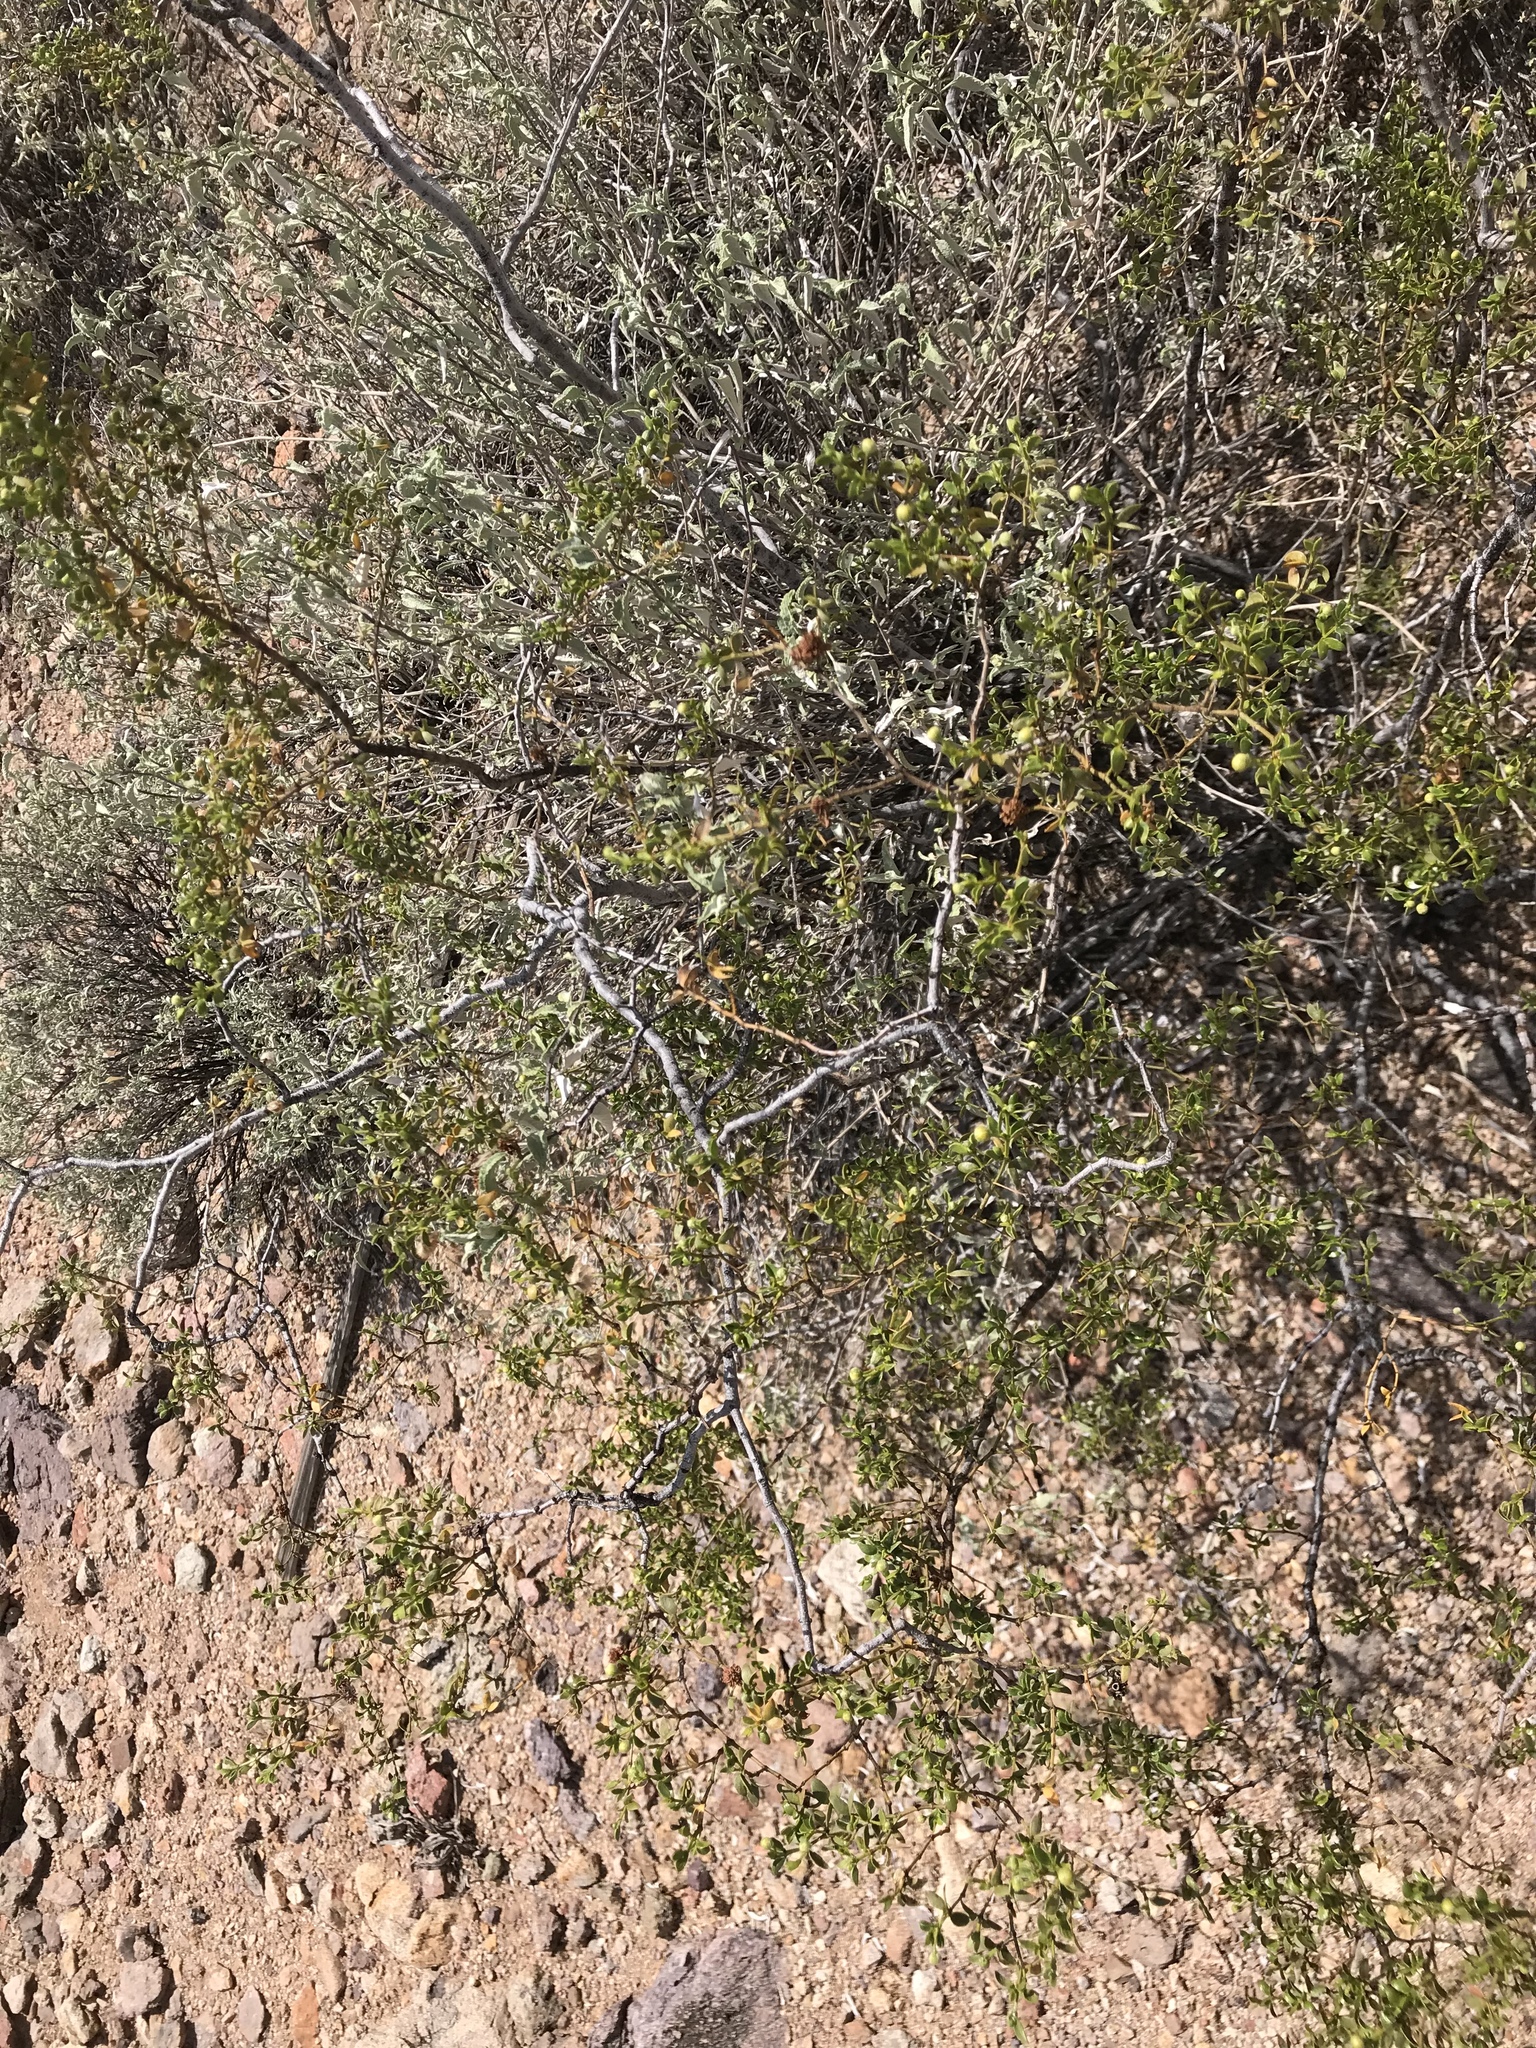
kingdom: Plantae
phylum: Tracheophyta
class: Magnoliopsida
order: Zygophyllales
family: Zygophyllaceae
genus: Larrea
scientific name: Larrea tridentata
